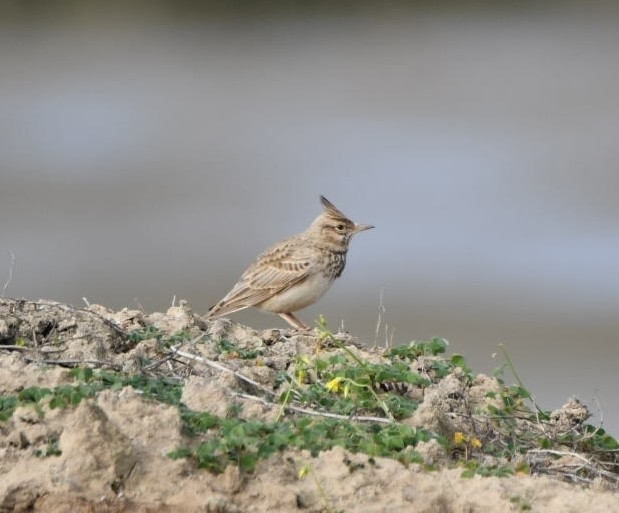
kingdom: Animalia
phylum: Chordata
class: Aves
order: Passeriformes
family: Alaudidae
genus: Galerida
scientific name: Galerida cristata
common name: Crested lark
